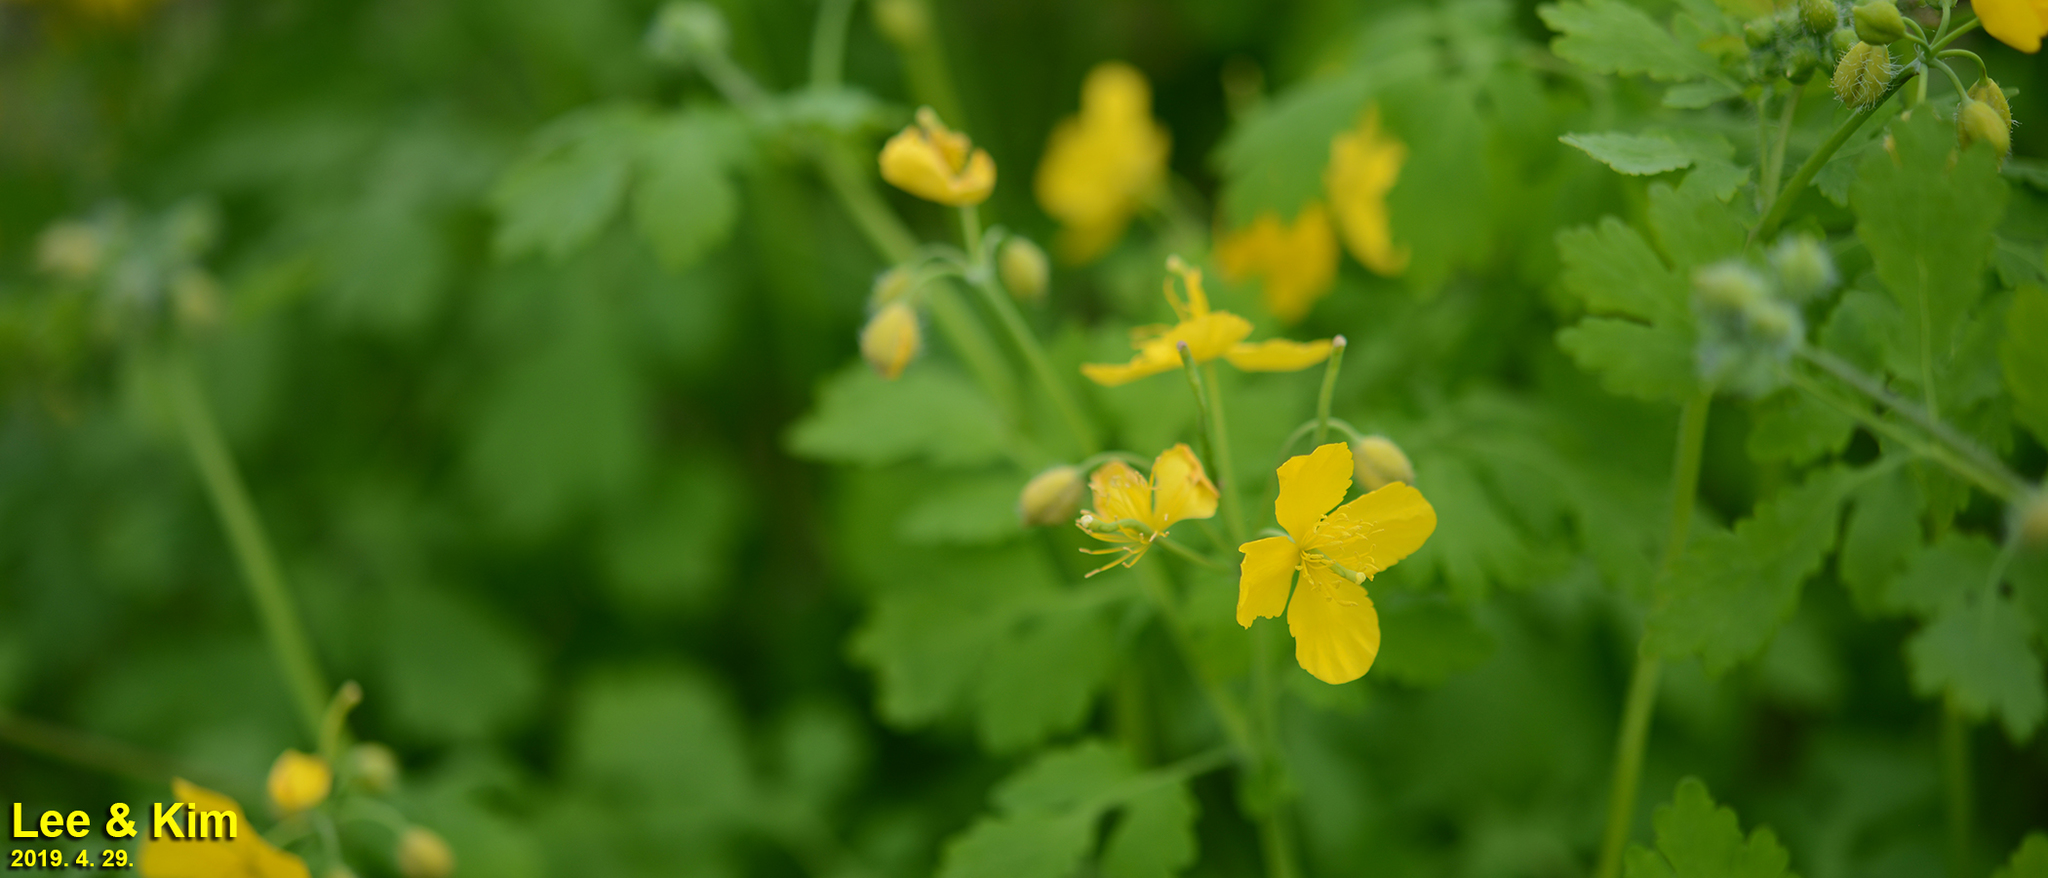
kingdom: Plantae
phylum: Tracheophyta
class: Magnoliopsida
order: Ranunculales
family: Papaveraceae
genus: Chelidonium
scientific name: Chelidonium majus
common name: Greater celandine
